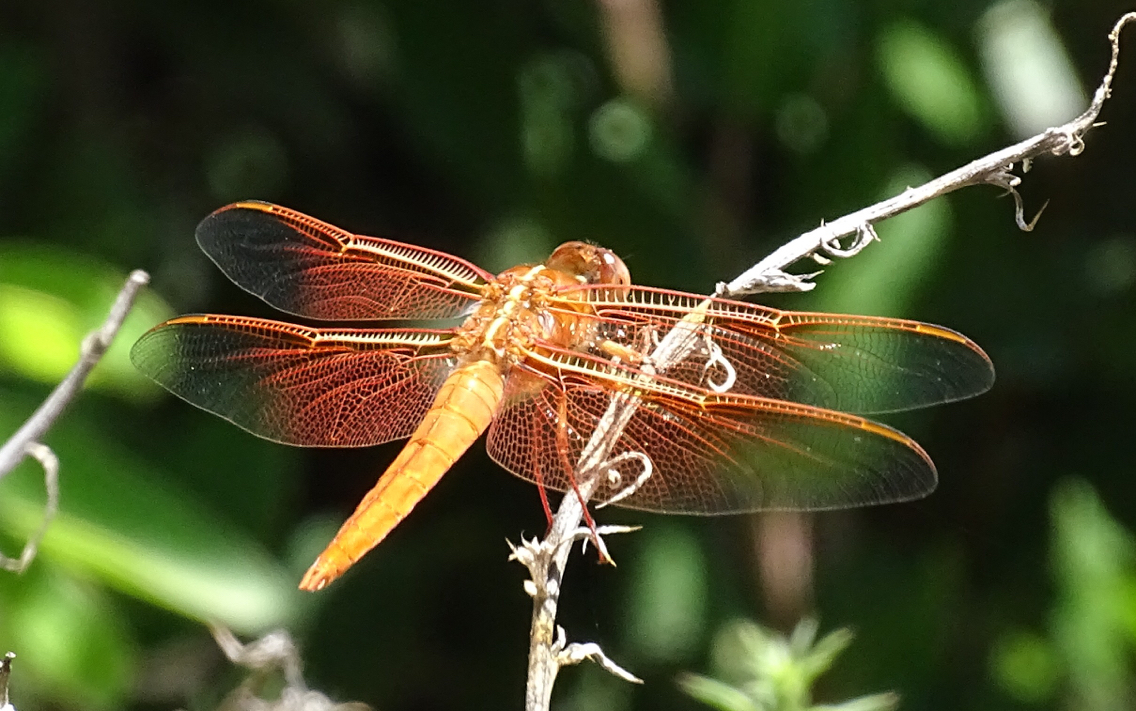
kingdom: Animalia
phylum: Arthropoda
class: Insecta
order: Odonata
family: Libellulidae
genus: Libellula
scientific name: Libellula saturata
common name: Flame skimmer
